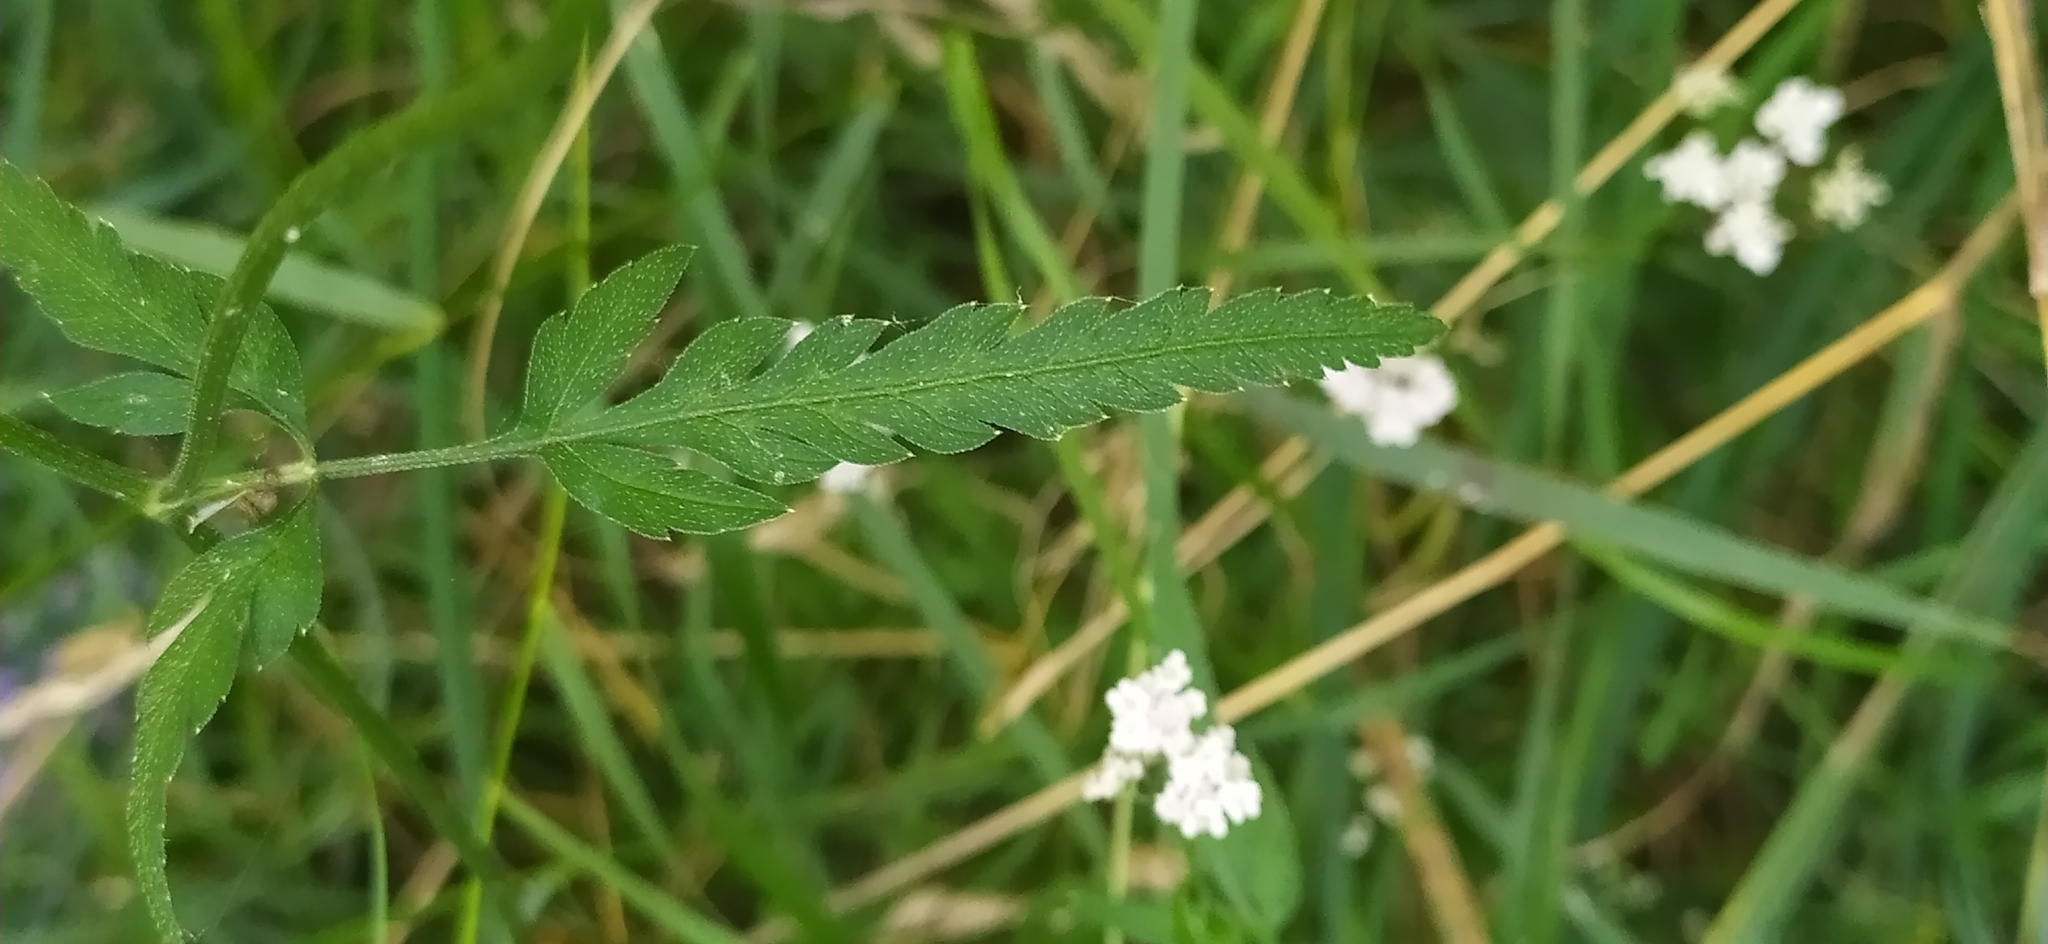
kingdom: Plantae
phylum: Tracheophyta
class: Magnoliopsida
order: Apiales
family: Apiaceae
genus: Torilis
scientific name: Torilis japonica
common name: Upright hedge-parsley
